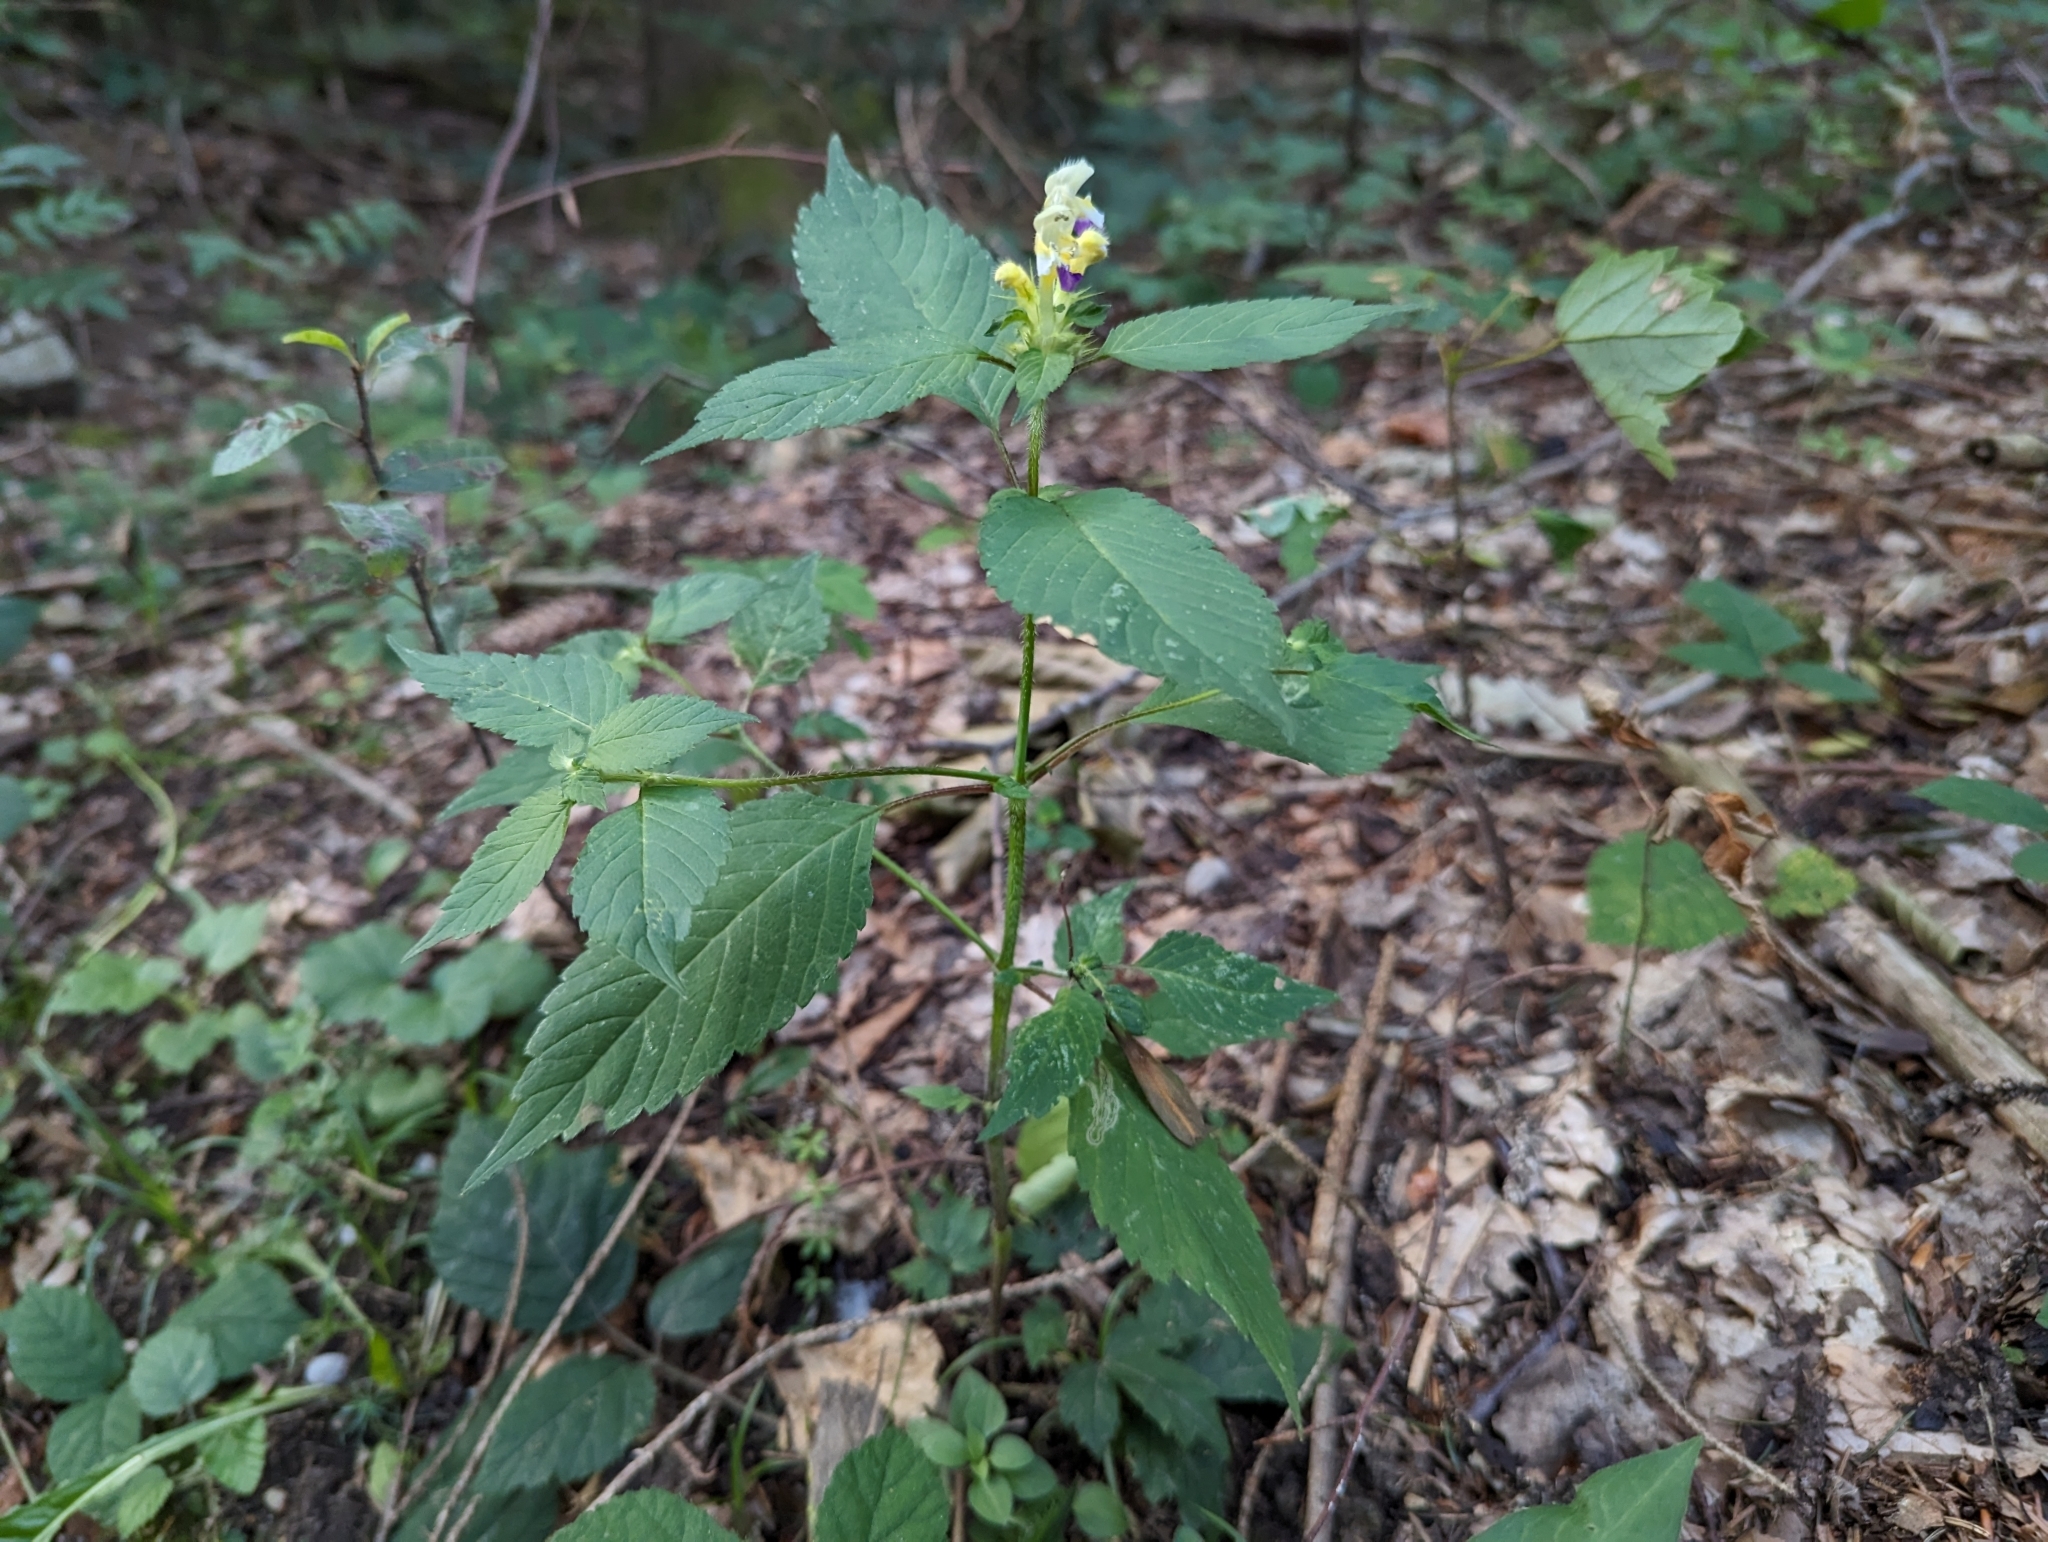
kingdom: Plantae
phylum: Tracheophyta
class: Magnoliopsida
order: Lamiales
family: Lamiaceae
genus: Galeopsis
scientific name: Galeopsis speciosa
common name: Large-flowered hemp-nettle
